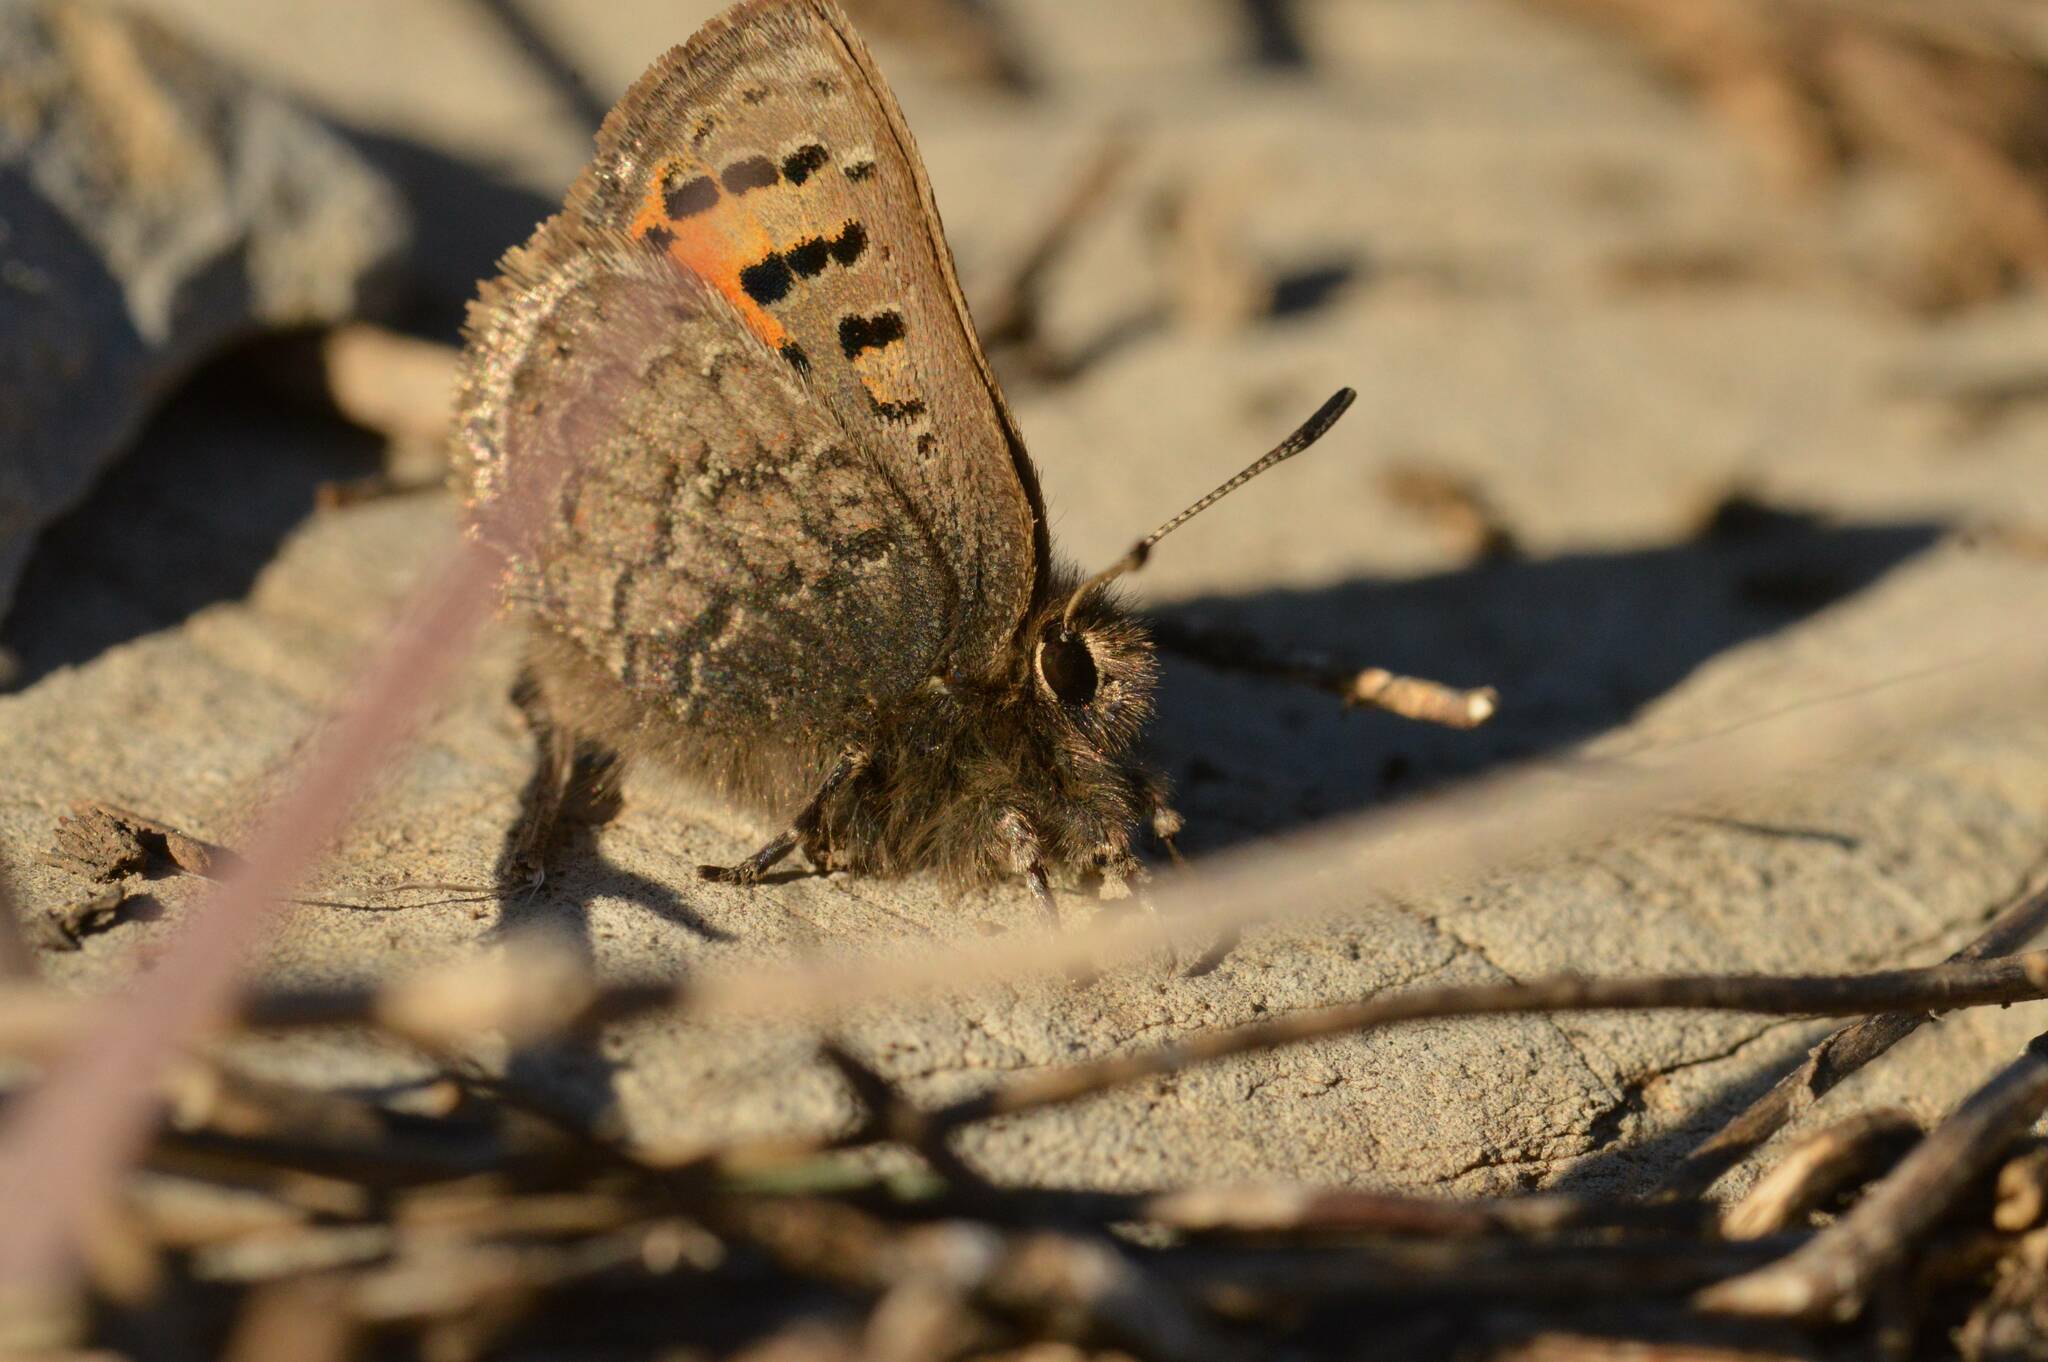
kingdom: Animalia
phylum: Arthropoda
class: Insecta
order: Lepidoptera
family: Lycaenidae
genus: Tomares
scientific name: Tomares mauritanicus
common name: Moroccan hairstreak
